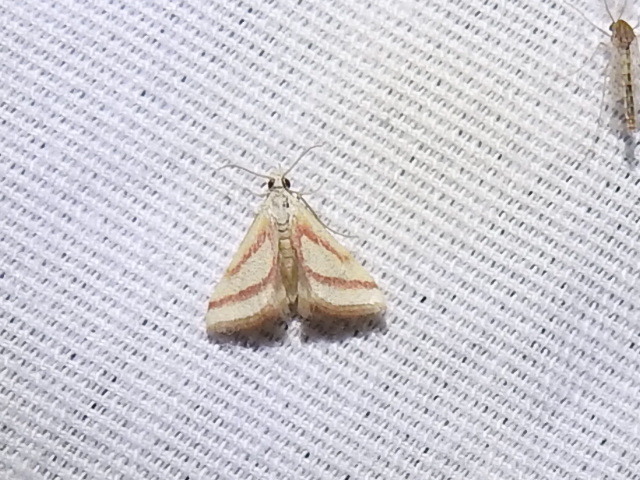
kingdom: Animalia
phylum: Arthropoda
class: Insecta
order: Lepidoptera
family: Crambidae
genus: Microtheoris
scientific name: Microtheoris vibicalis
